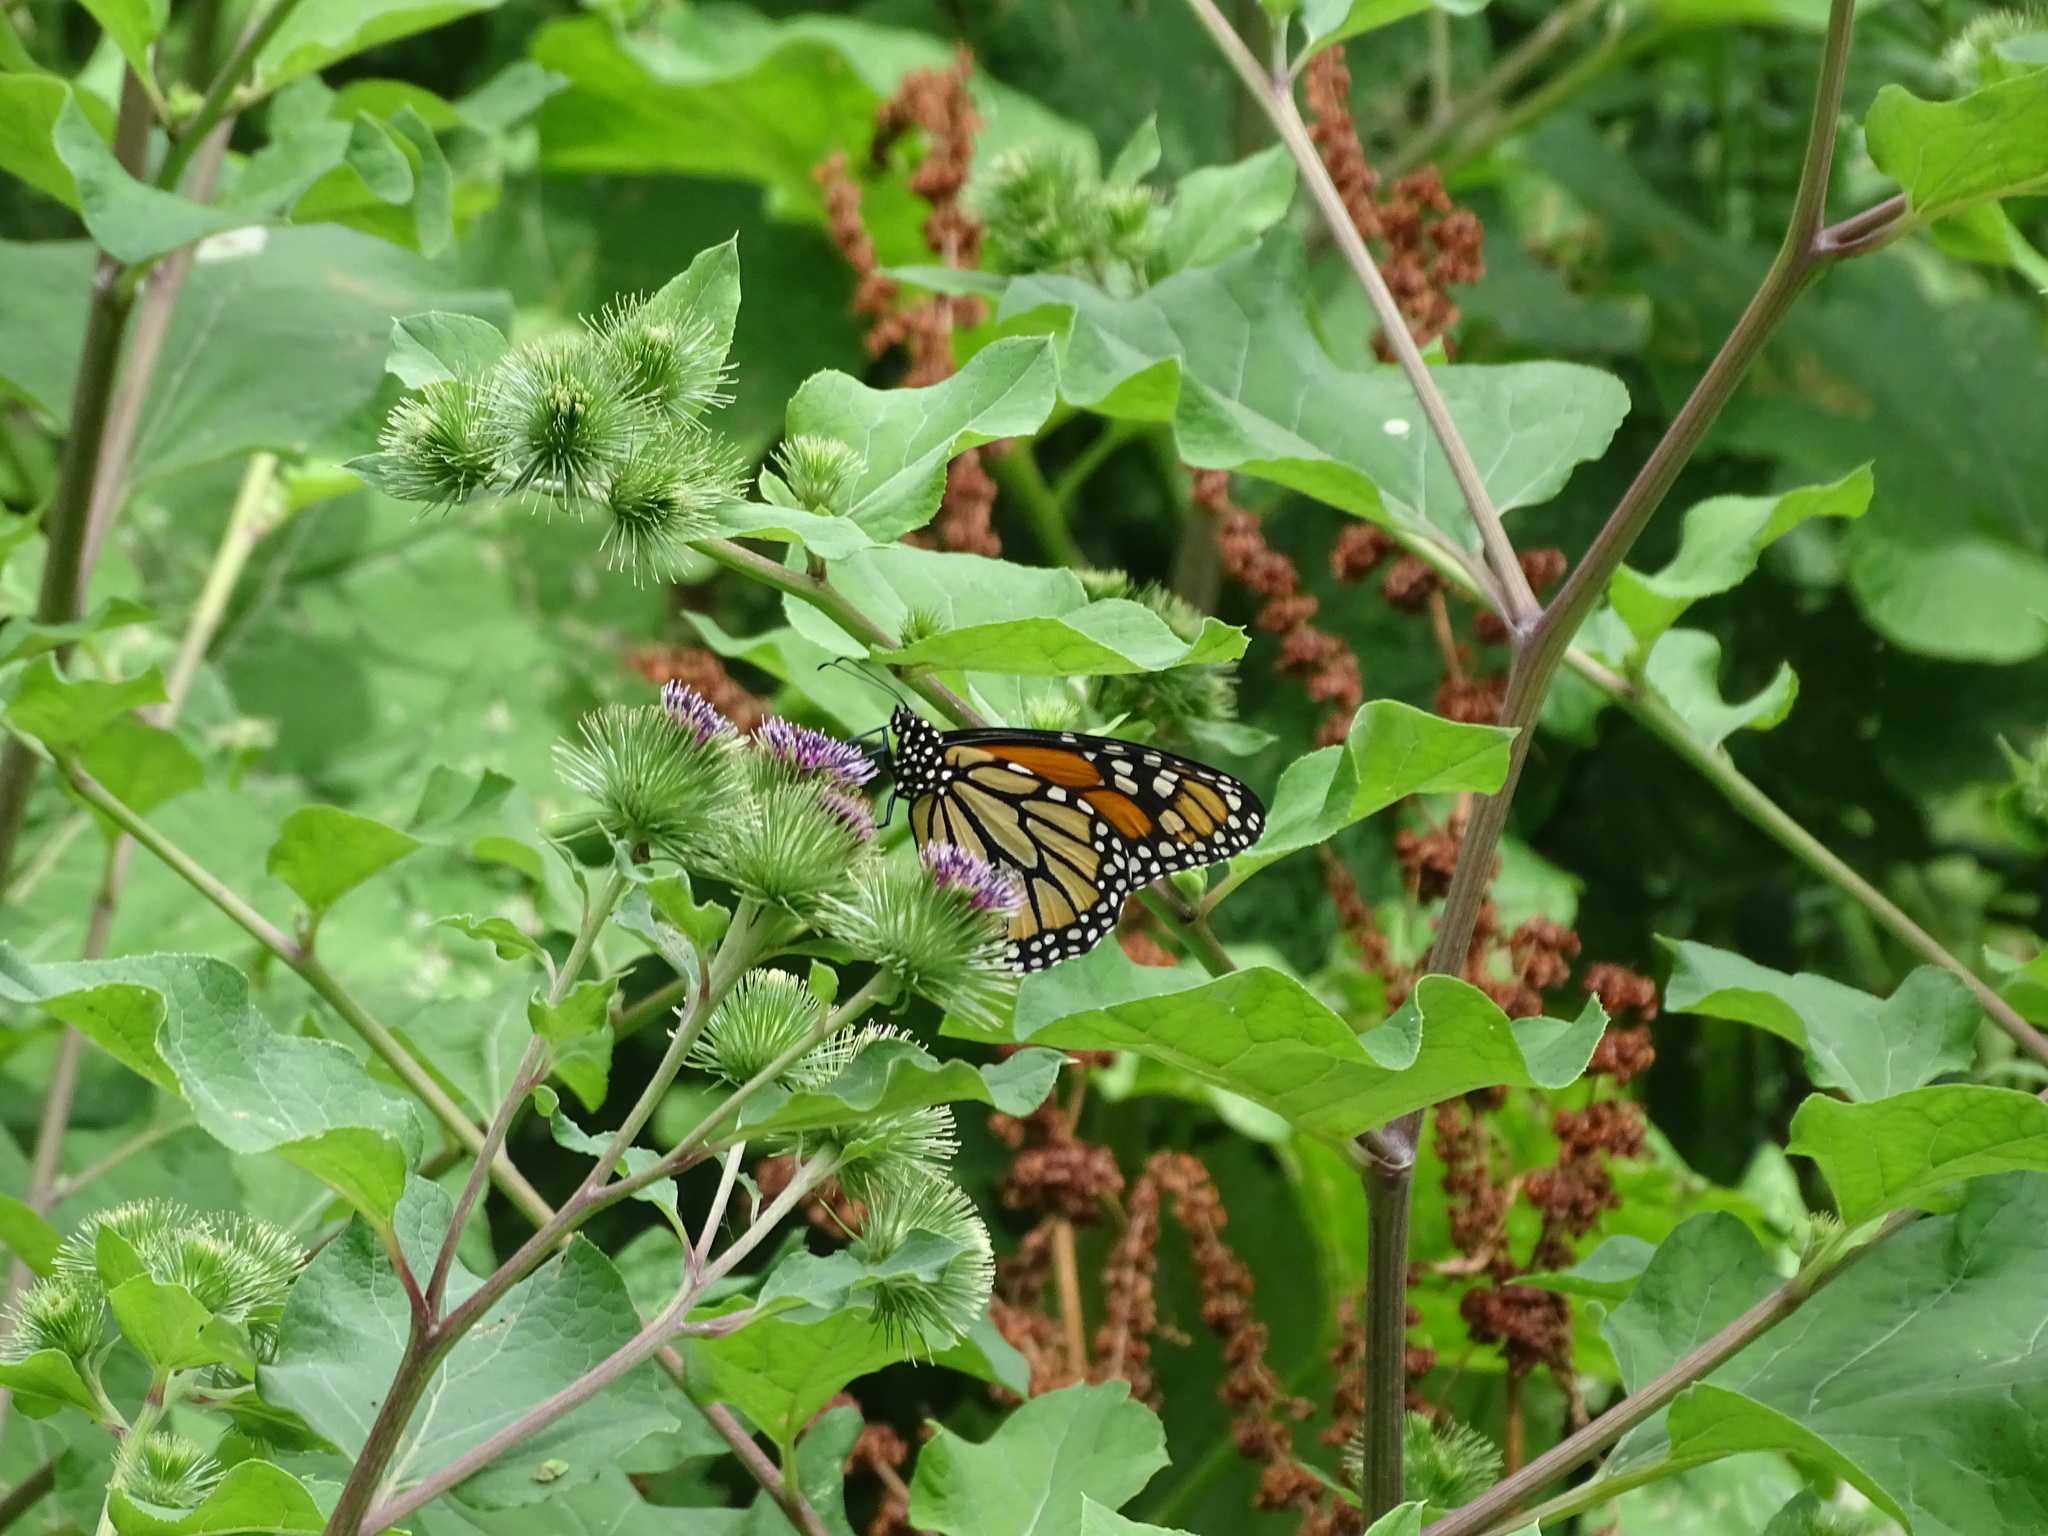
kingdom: Animalia
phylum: Arthropoda
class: Insecta
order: Lepidoptera
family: Nymphalidae
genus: Danaus
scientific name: Danaus plexippus
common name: Monarch
